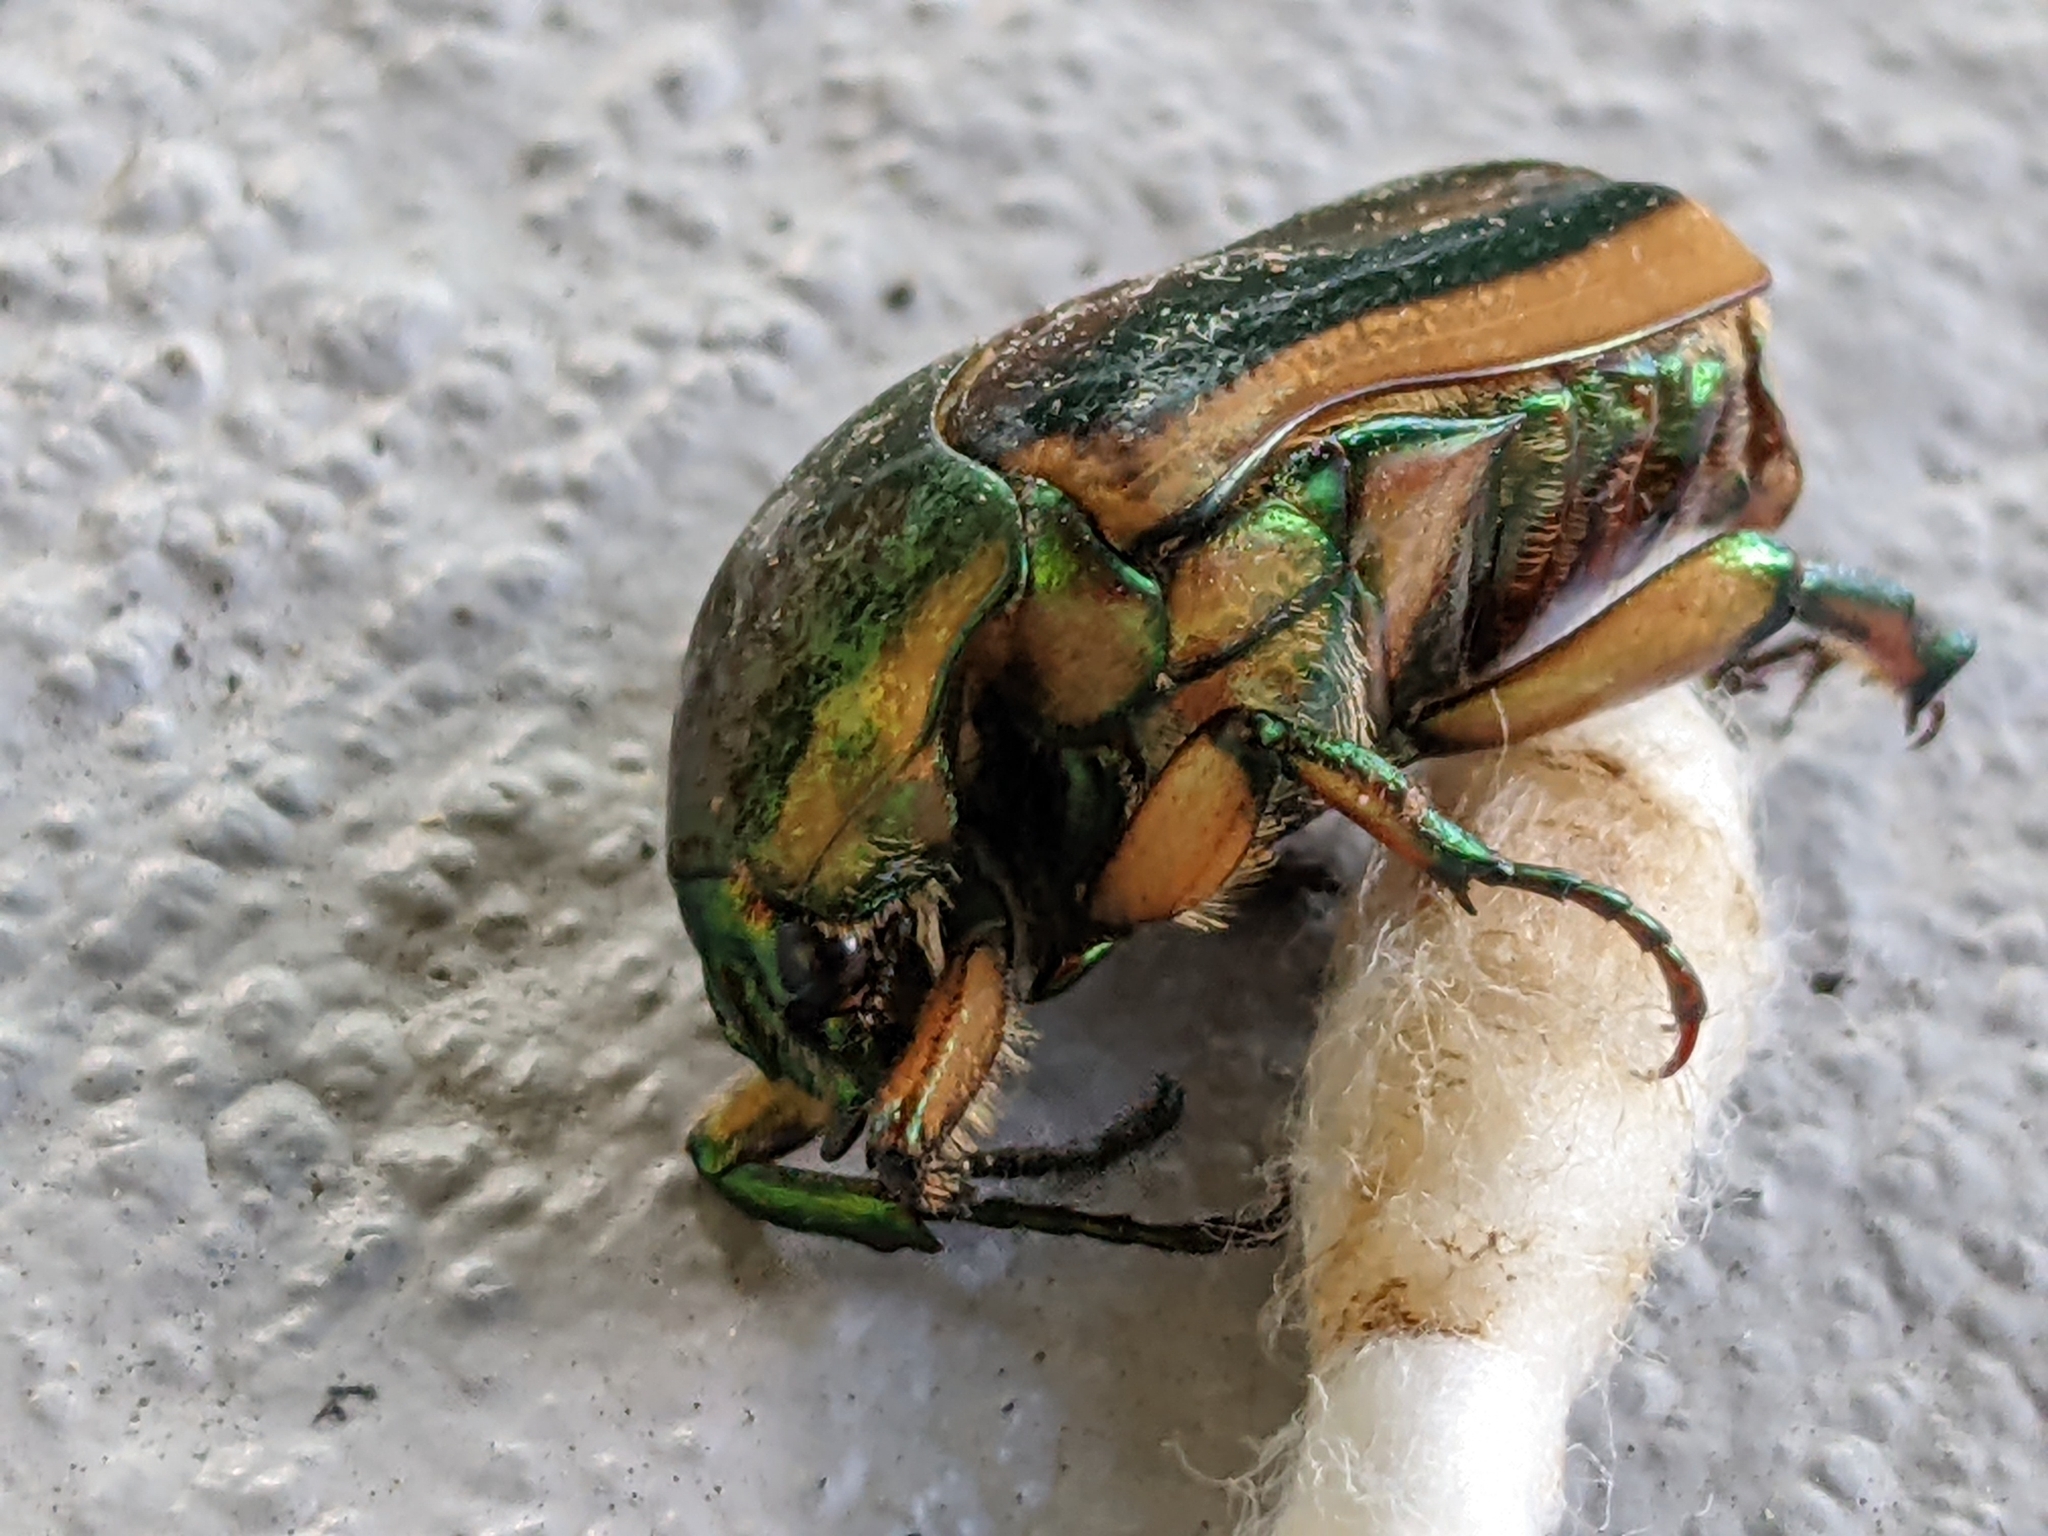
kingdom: Animalia
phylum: Arthropoda
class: Insecta
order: Coleoptera
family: Scarabaeidae
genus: Cotinis
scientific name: Cotinis nitida
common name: Common green june beetle
